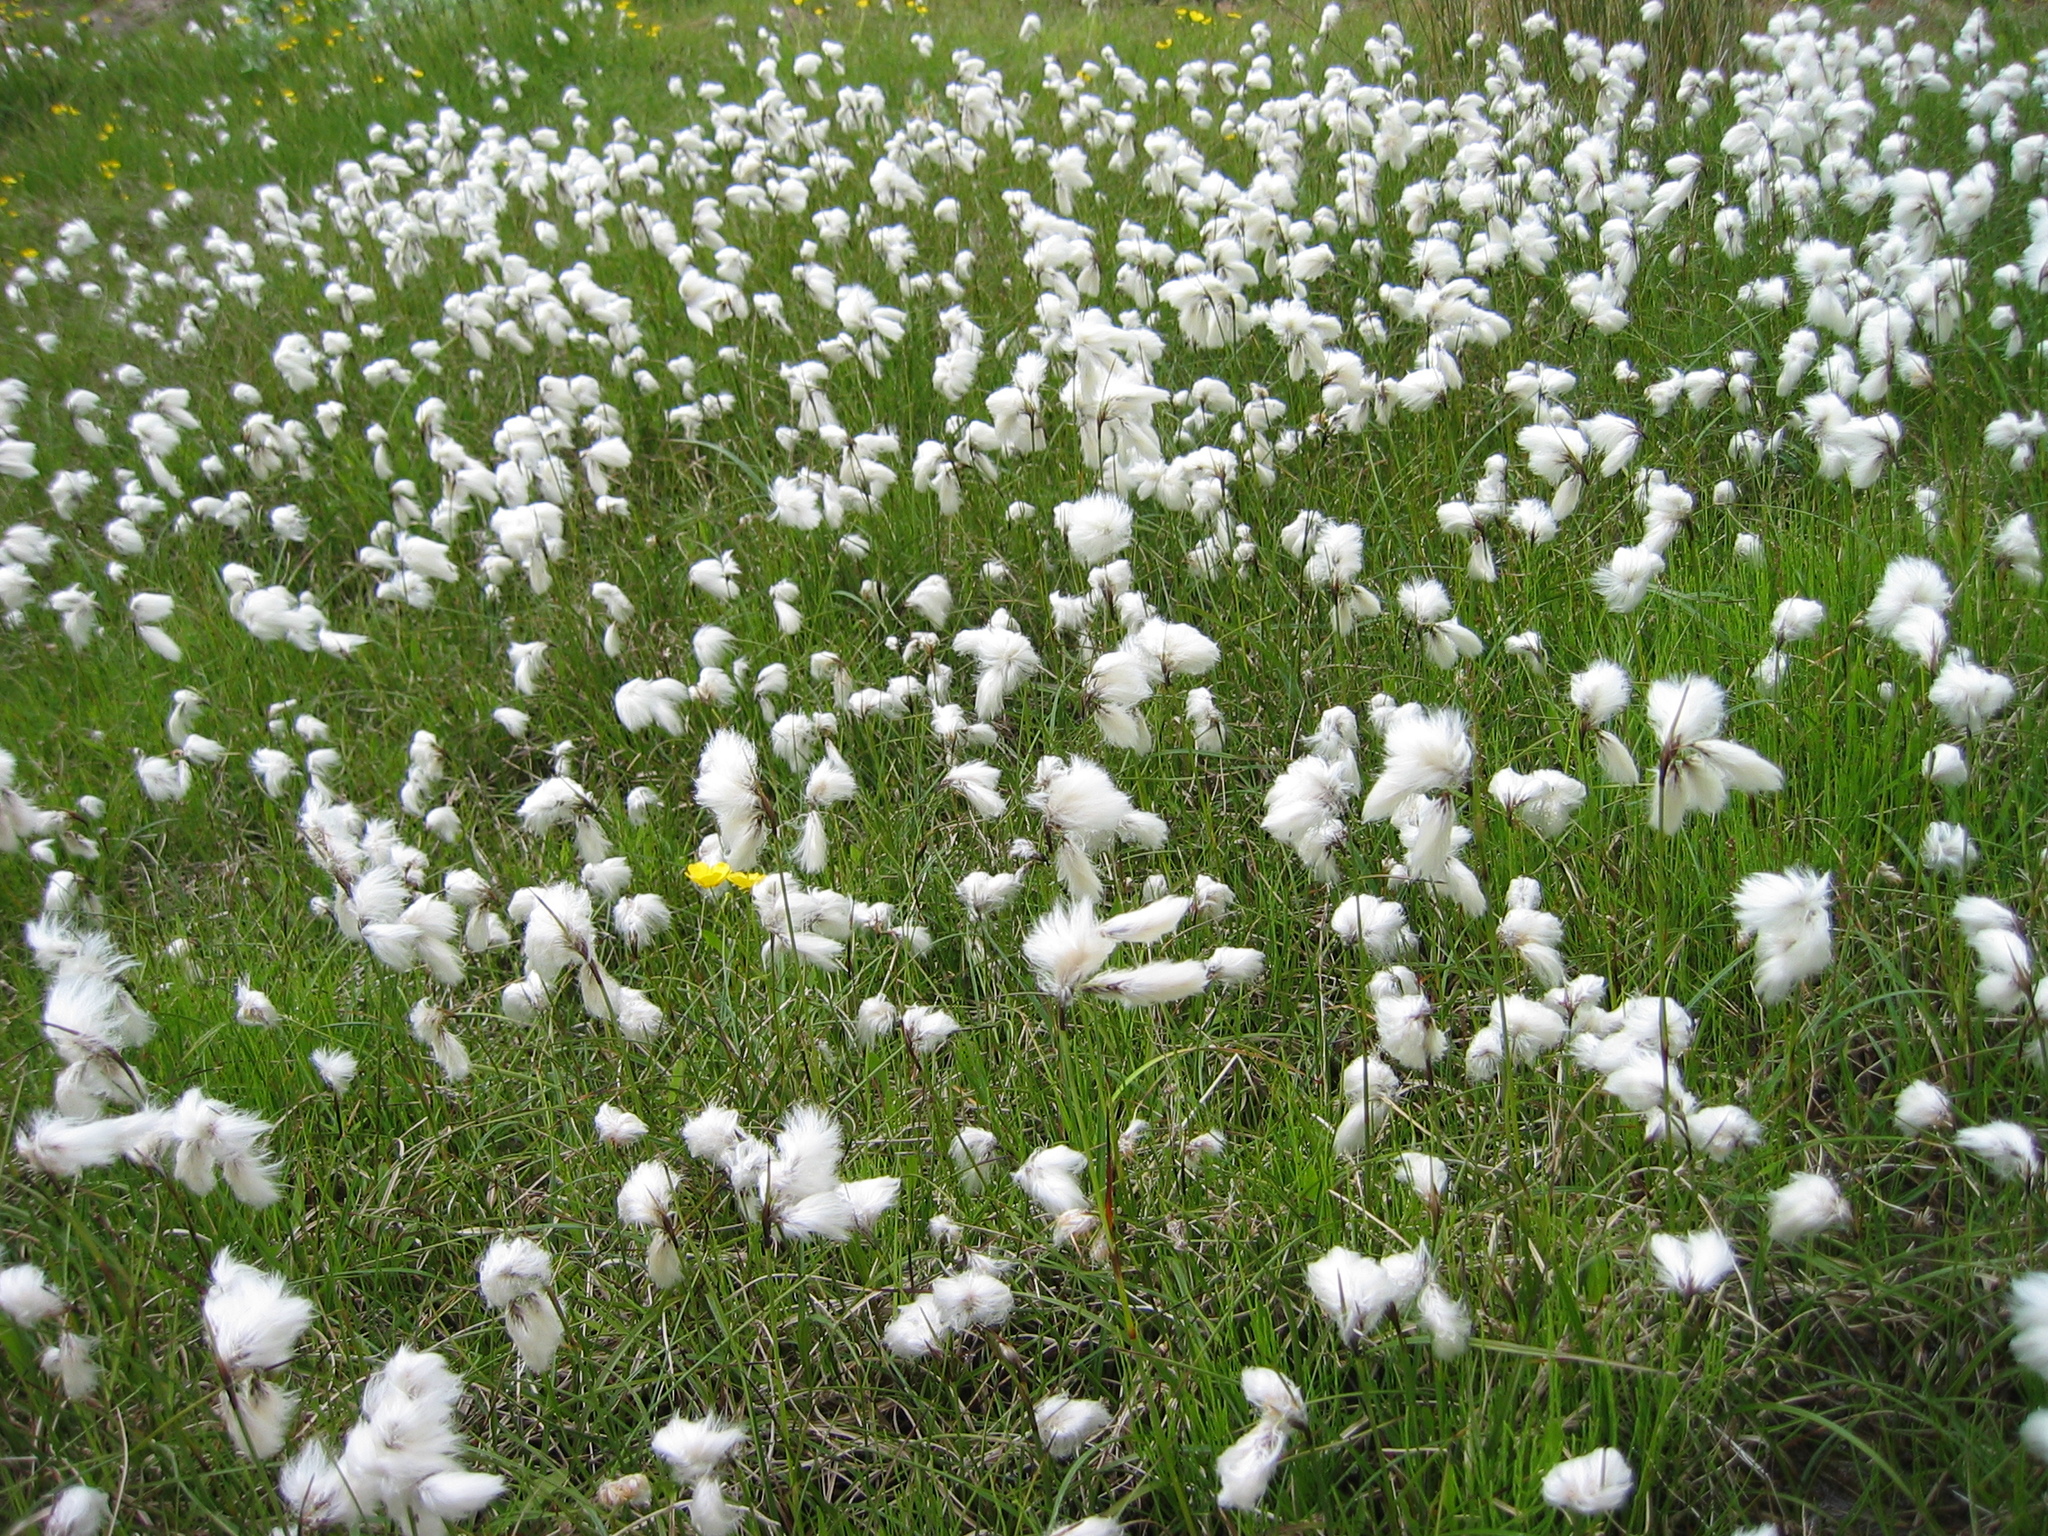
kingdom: Plantae
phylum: Tracheophyta
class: Liliopsida
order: Poales
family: Cyperaceae
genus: Eriophorum
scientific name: Eriophorum angustifolium
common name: Common cottongrass
